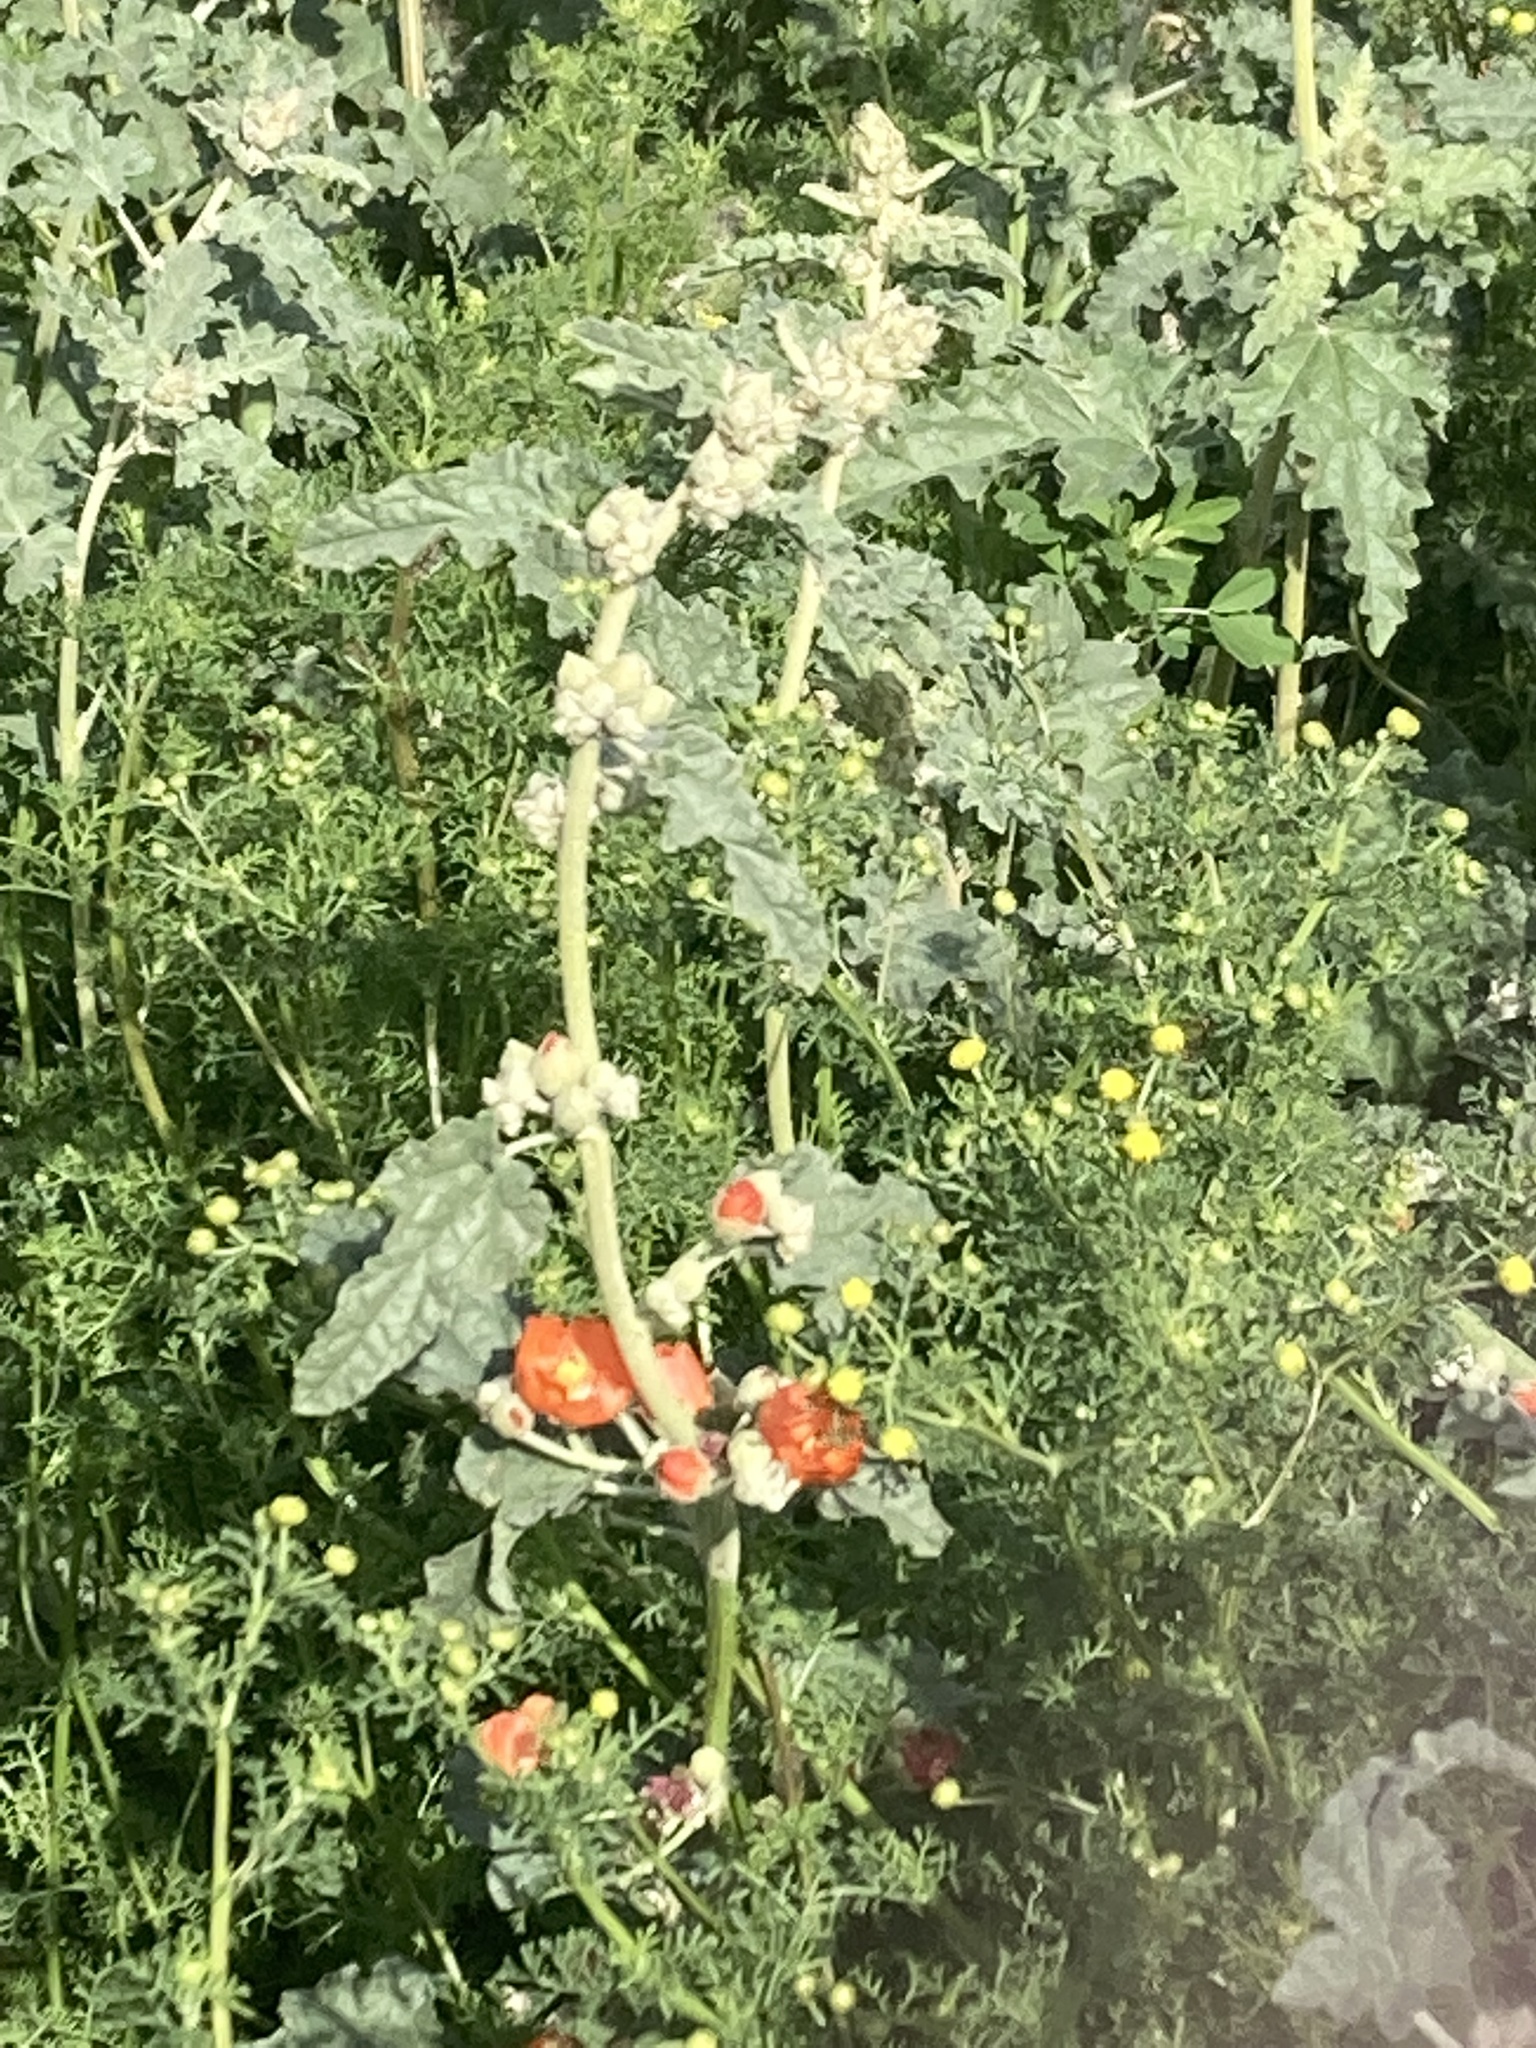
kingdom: Plantae
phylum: Tracheophyta
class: Magnoliopsida
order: Malvales
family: Malvaceae
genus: Sphaeralcea
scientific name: Sphaeralcea ambigua
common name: Apricot globe-mallow
